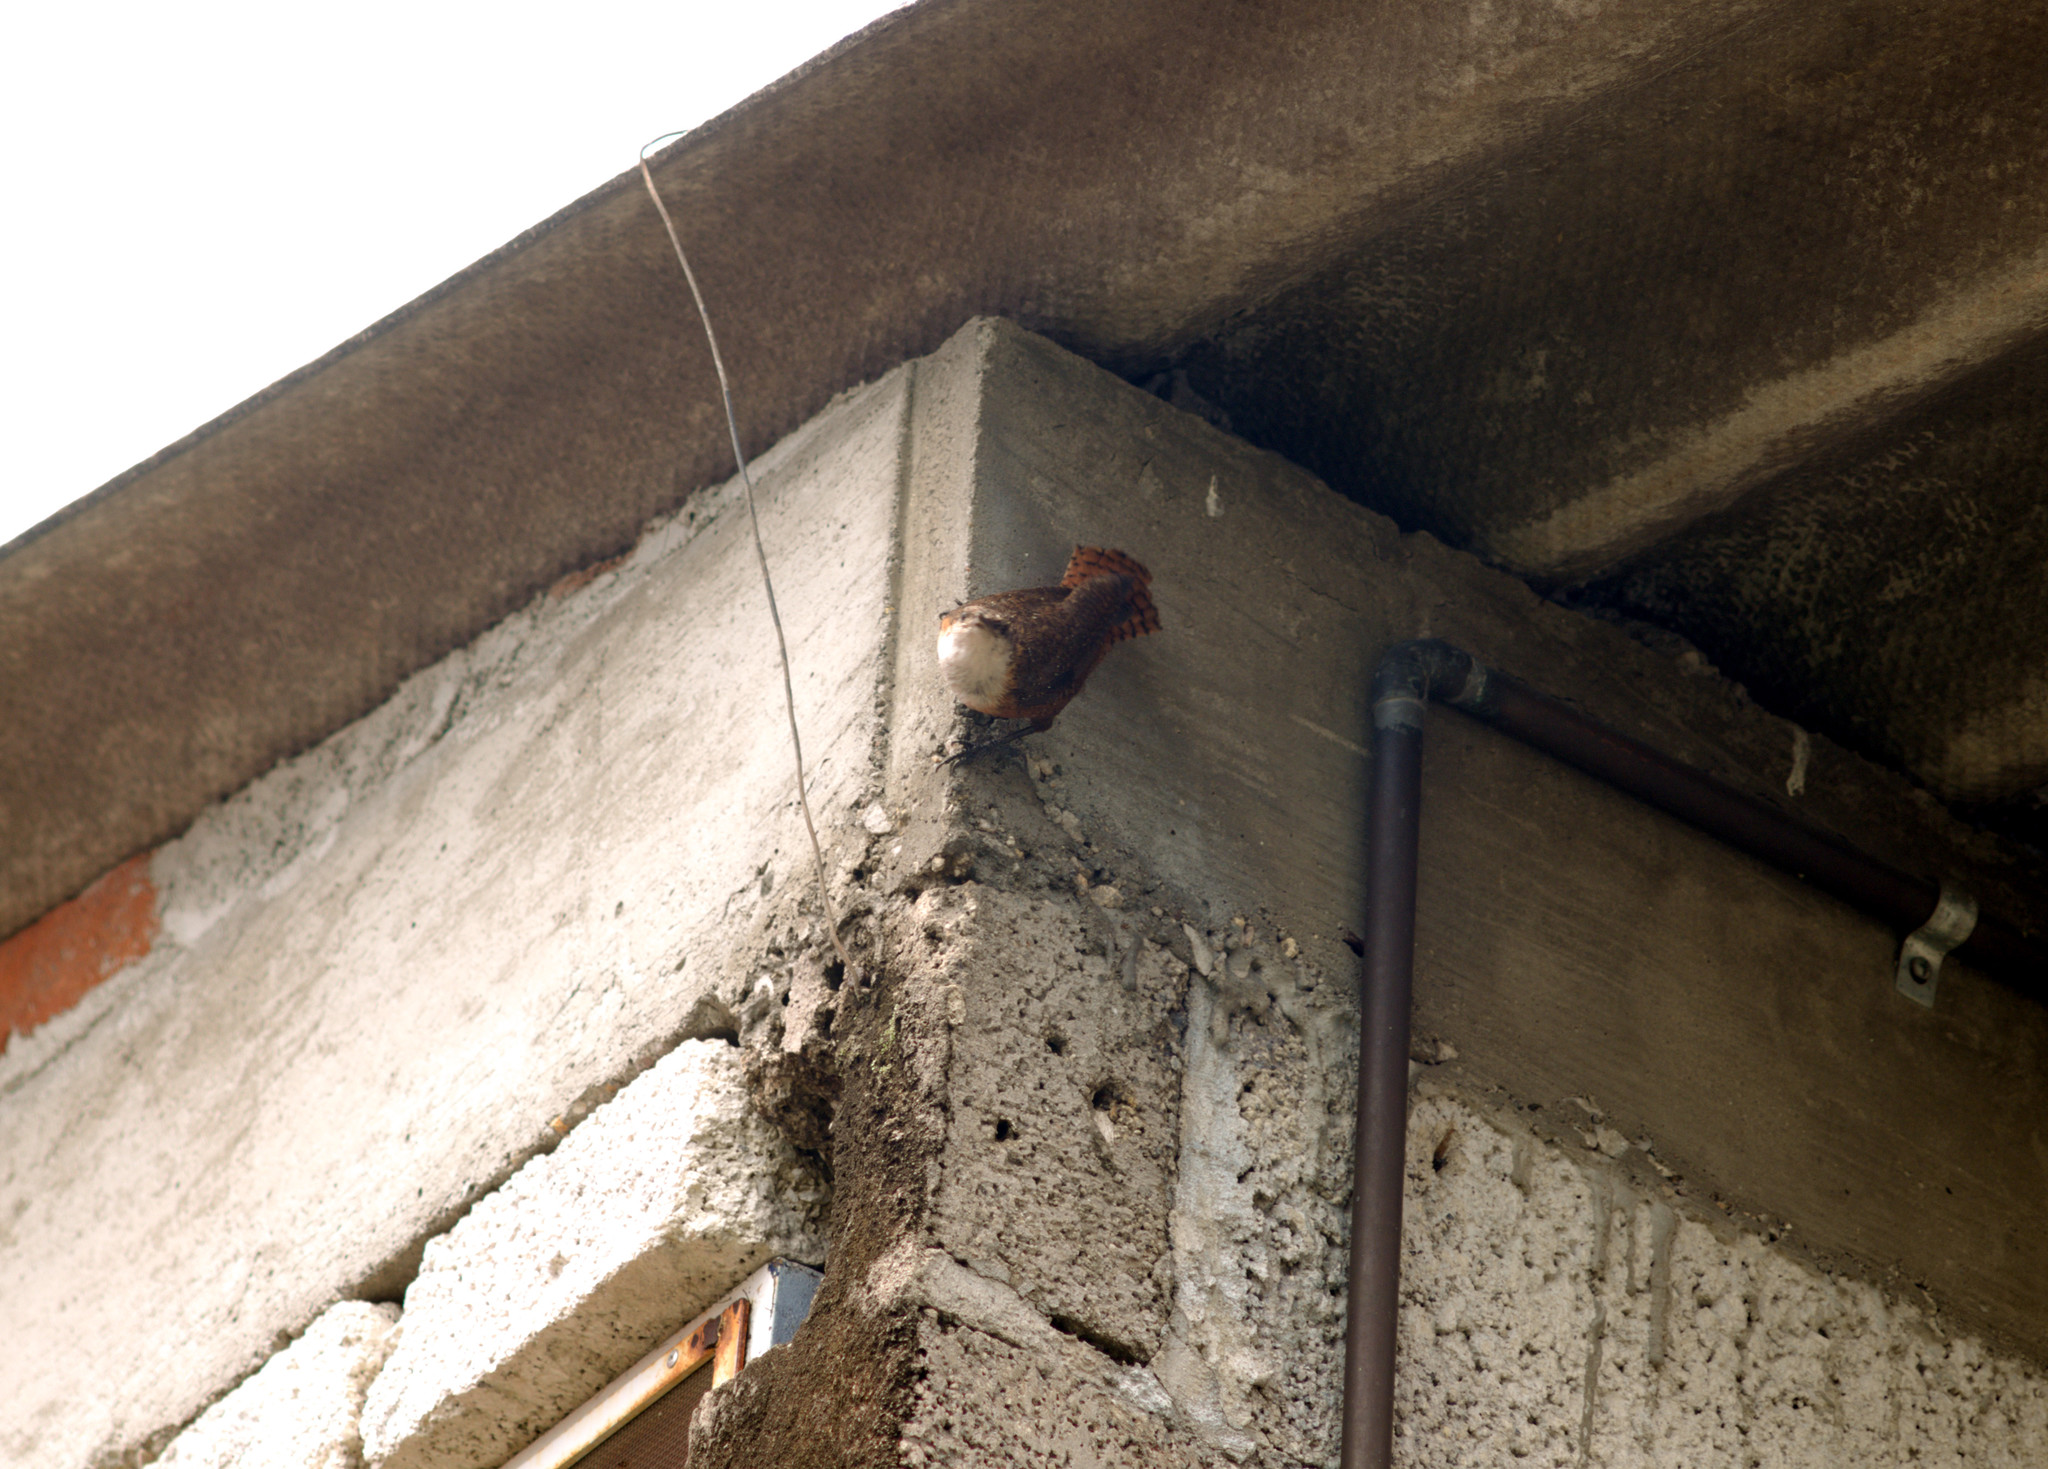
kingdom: Animalia
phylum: Chordata
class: Aves
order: Passeriformes
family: Troglodytidae
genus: Catherpes
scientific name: Catherpes mexicanus
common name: Canyon wren
